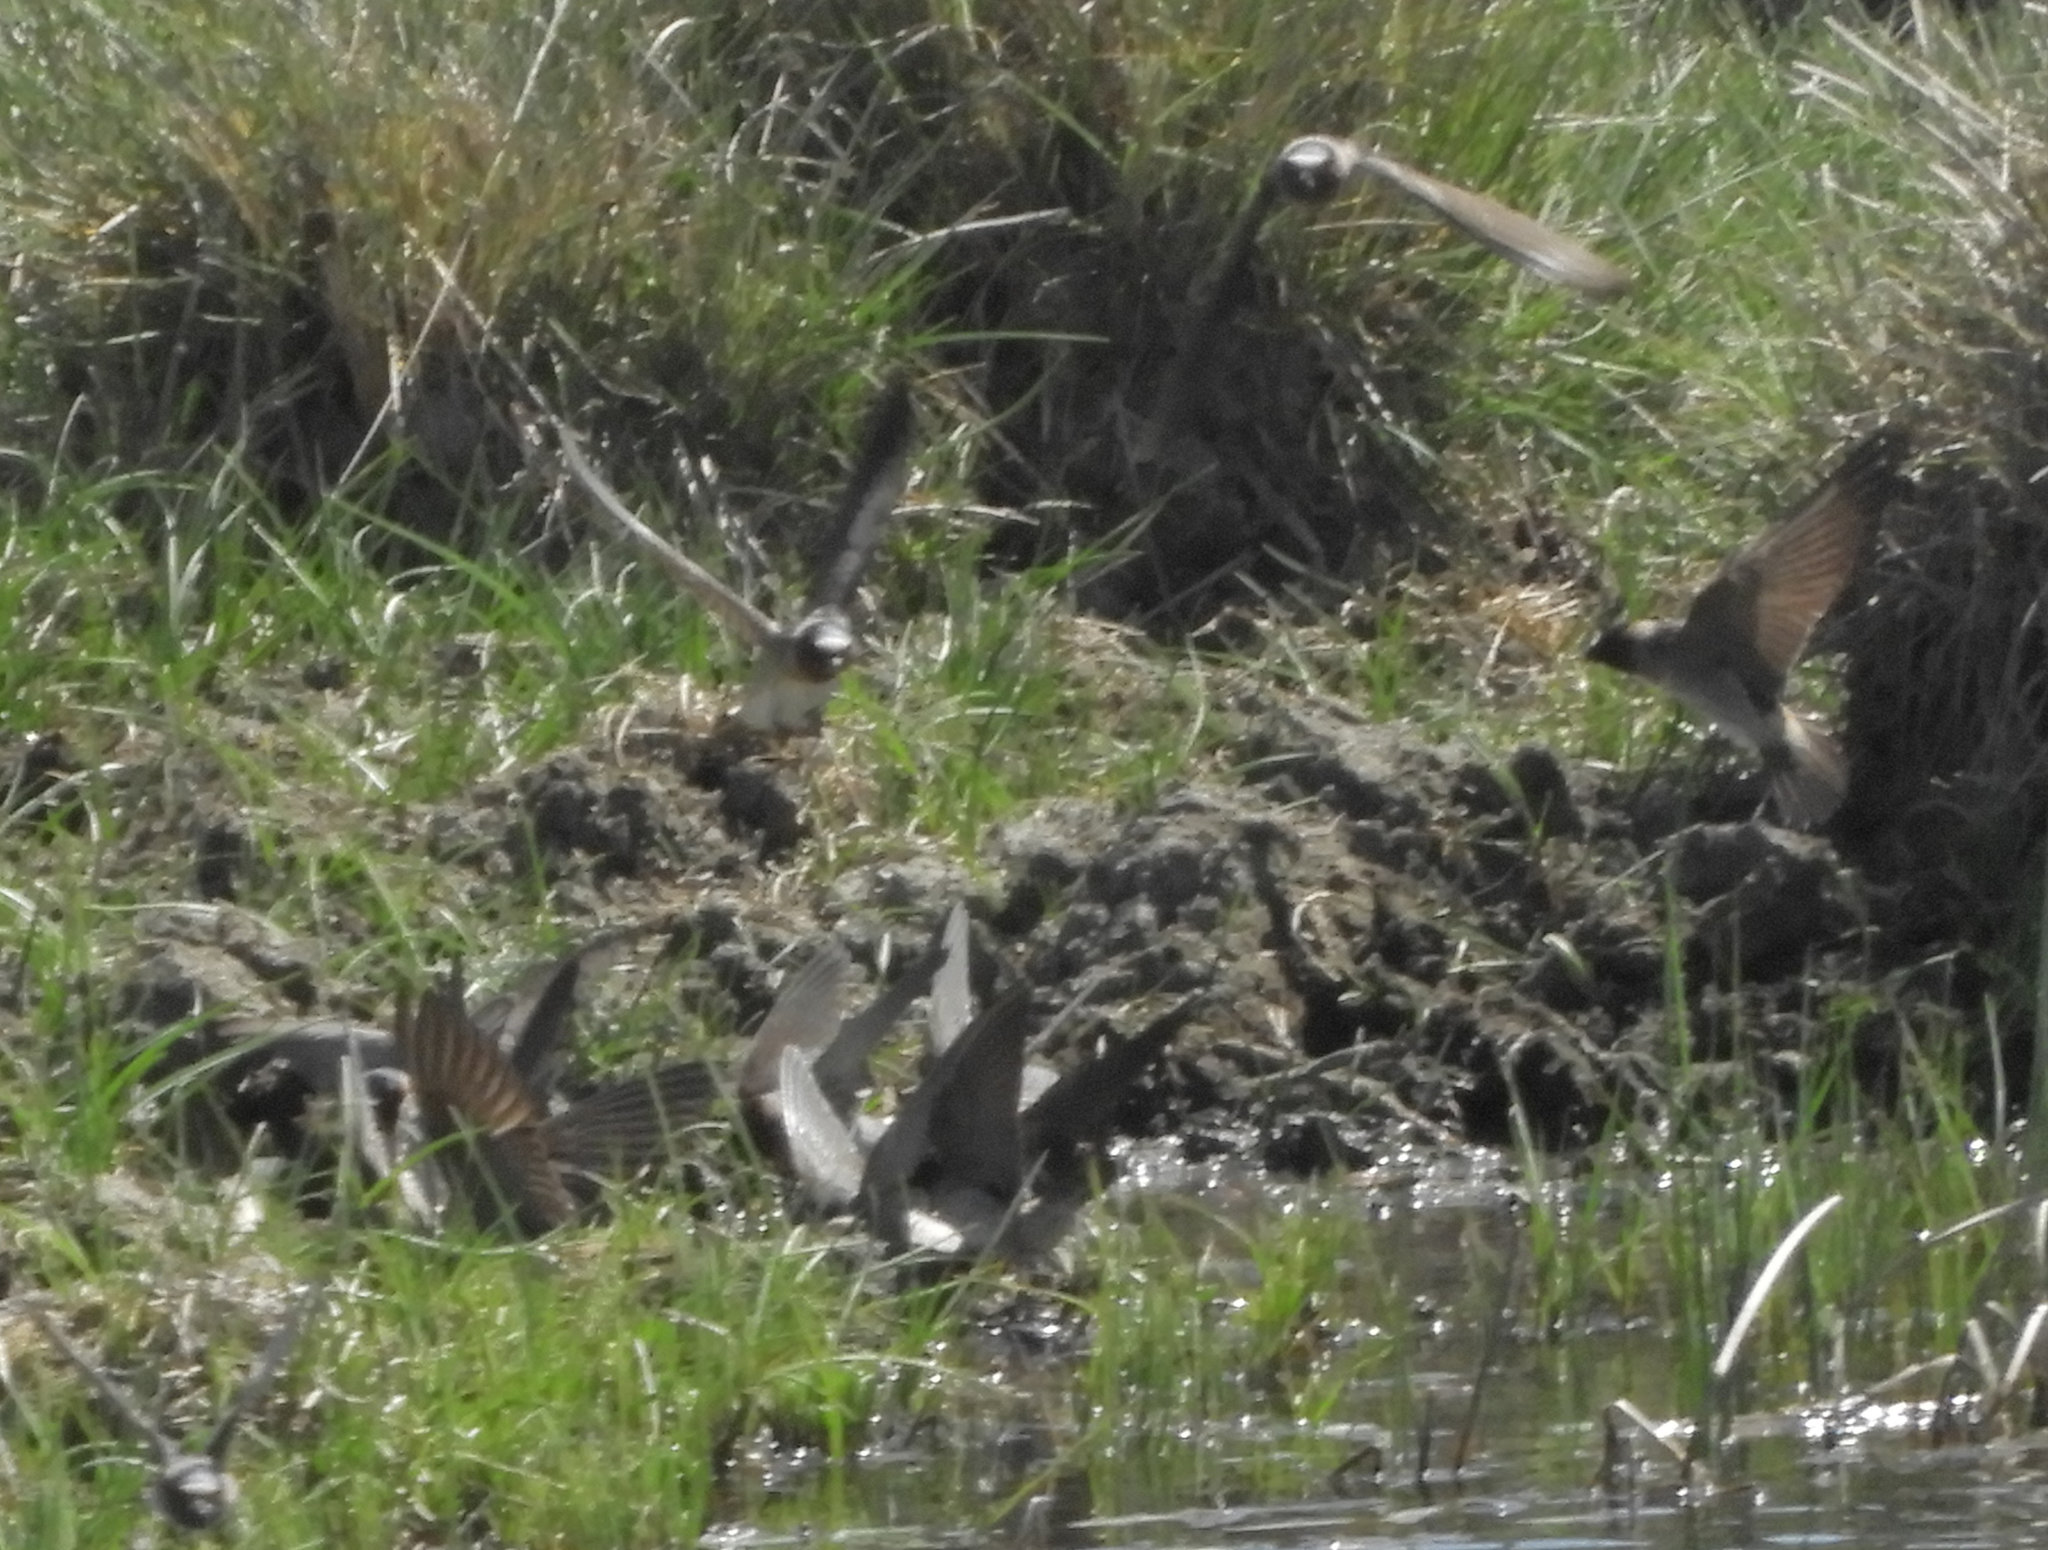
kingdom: Animalia
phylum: Chordata
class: Aves
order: Passeriformes
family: Hirundinidae
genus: Petrochelidon
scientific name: Petrochelidon pyrrhonota
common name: American cliff swallow
